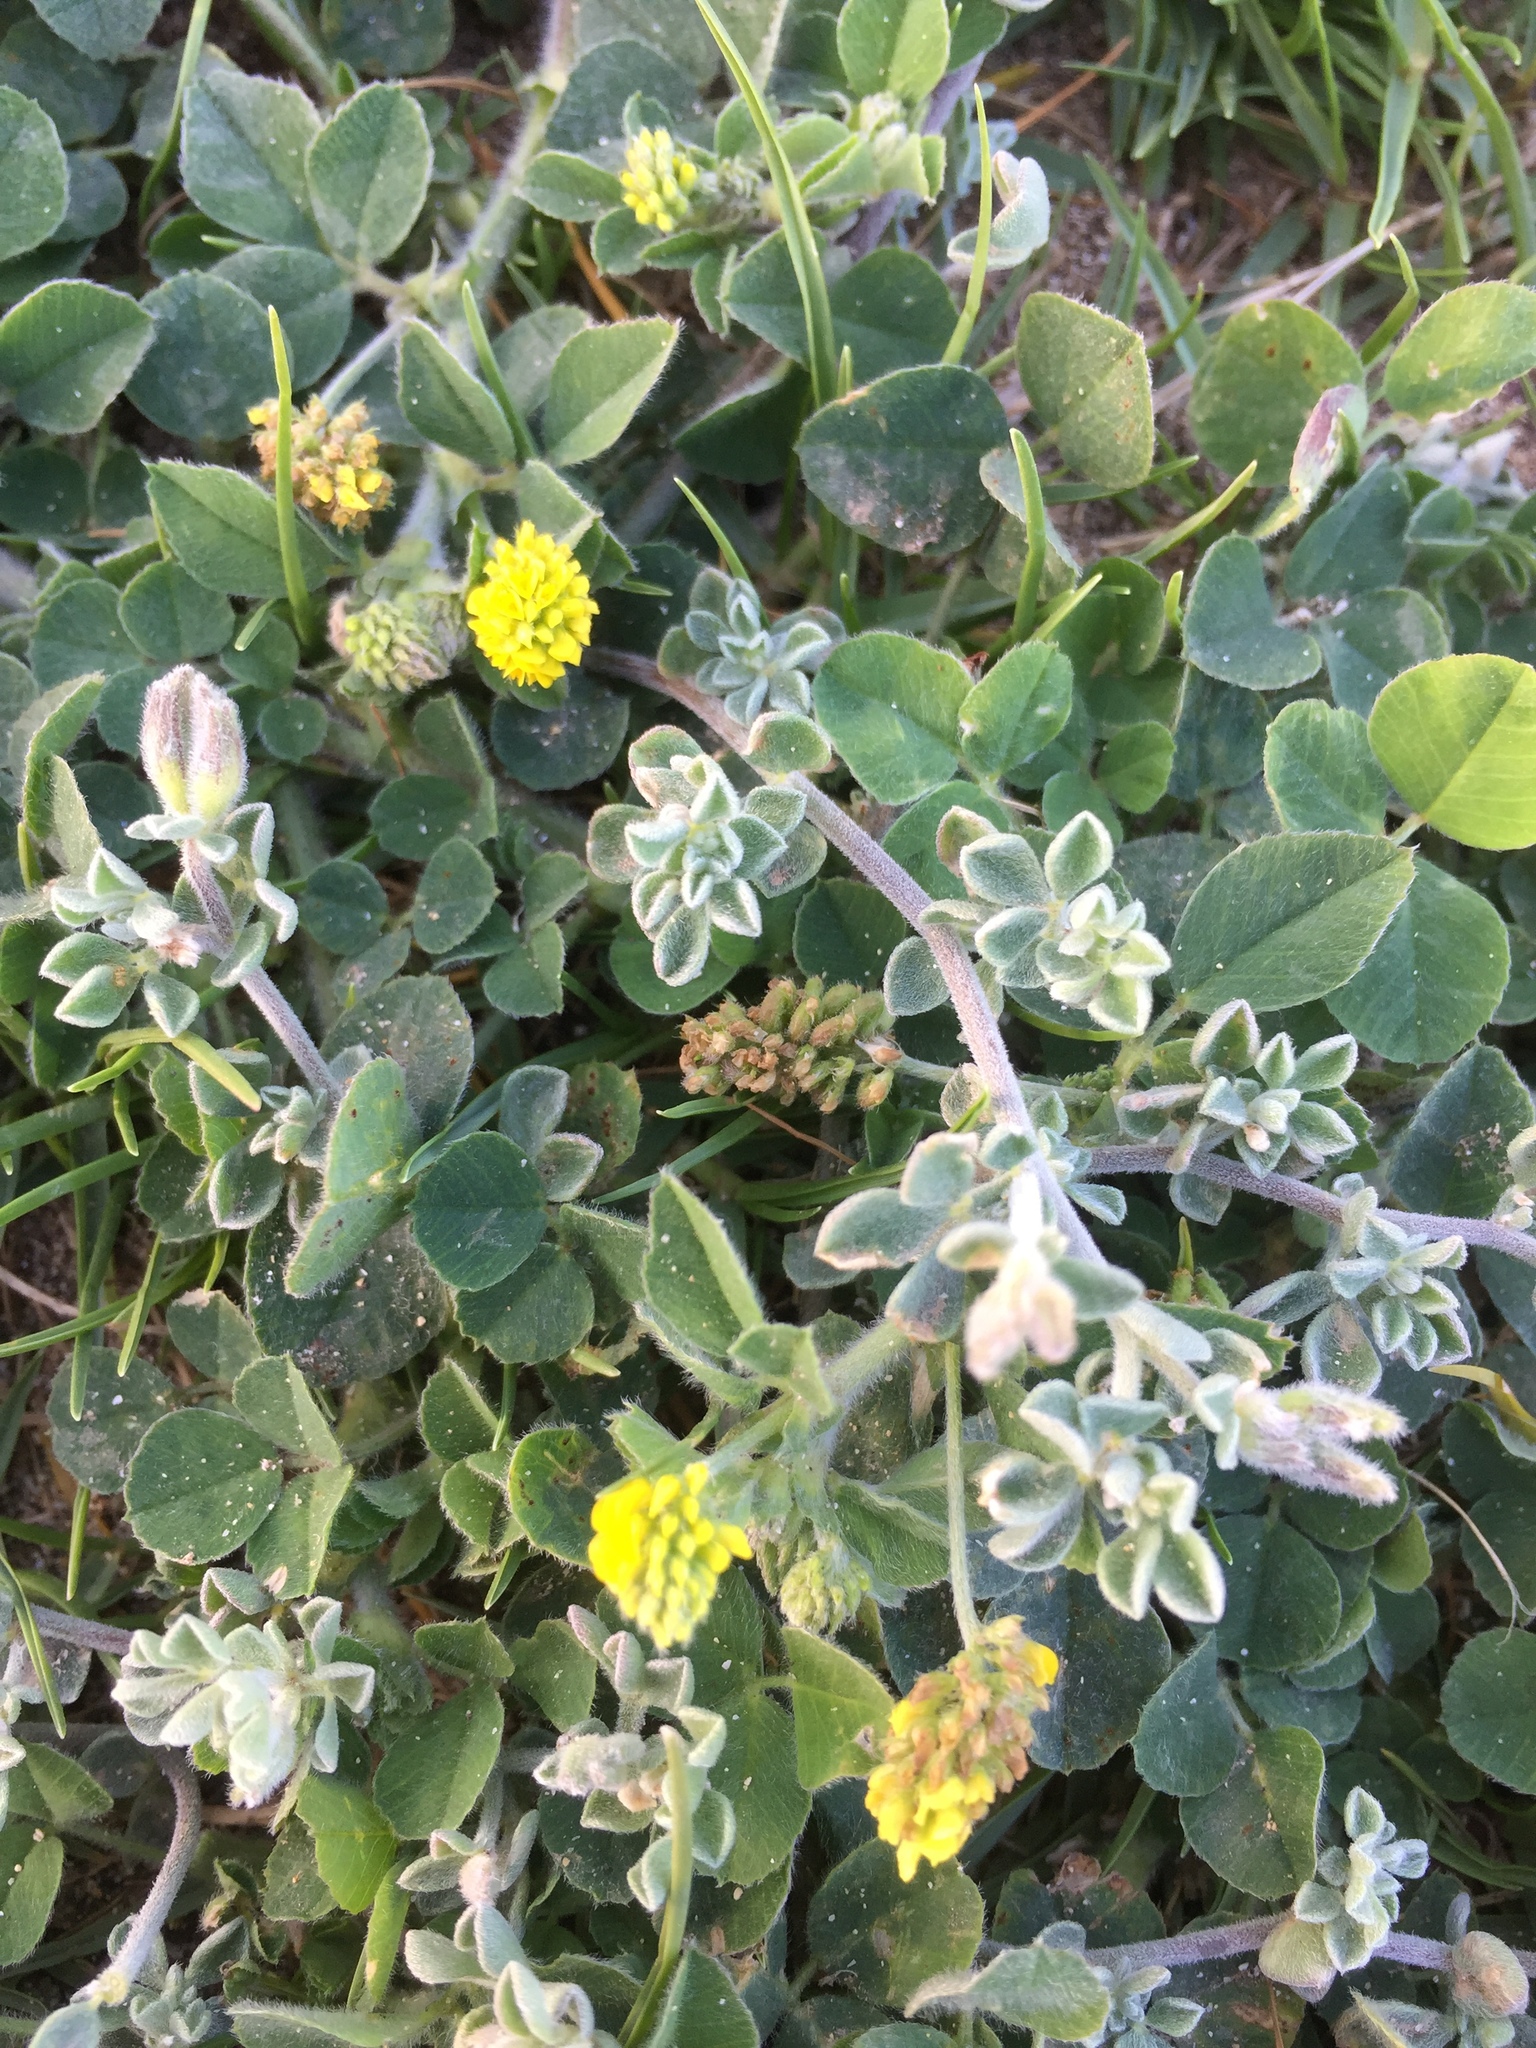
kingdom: Plantae
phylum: Tracheophyta
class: Magnoliopsida
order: Fabales
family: Fabaceae
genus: Medicago
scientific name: Medicago lupulina
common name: Black medick
